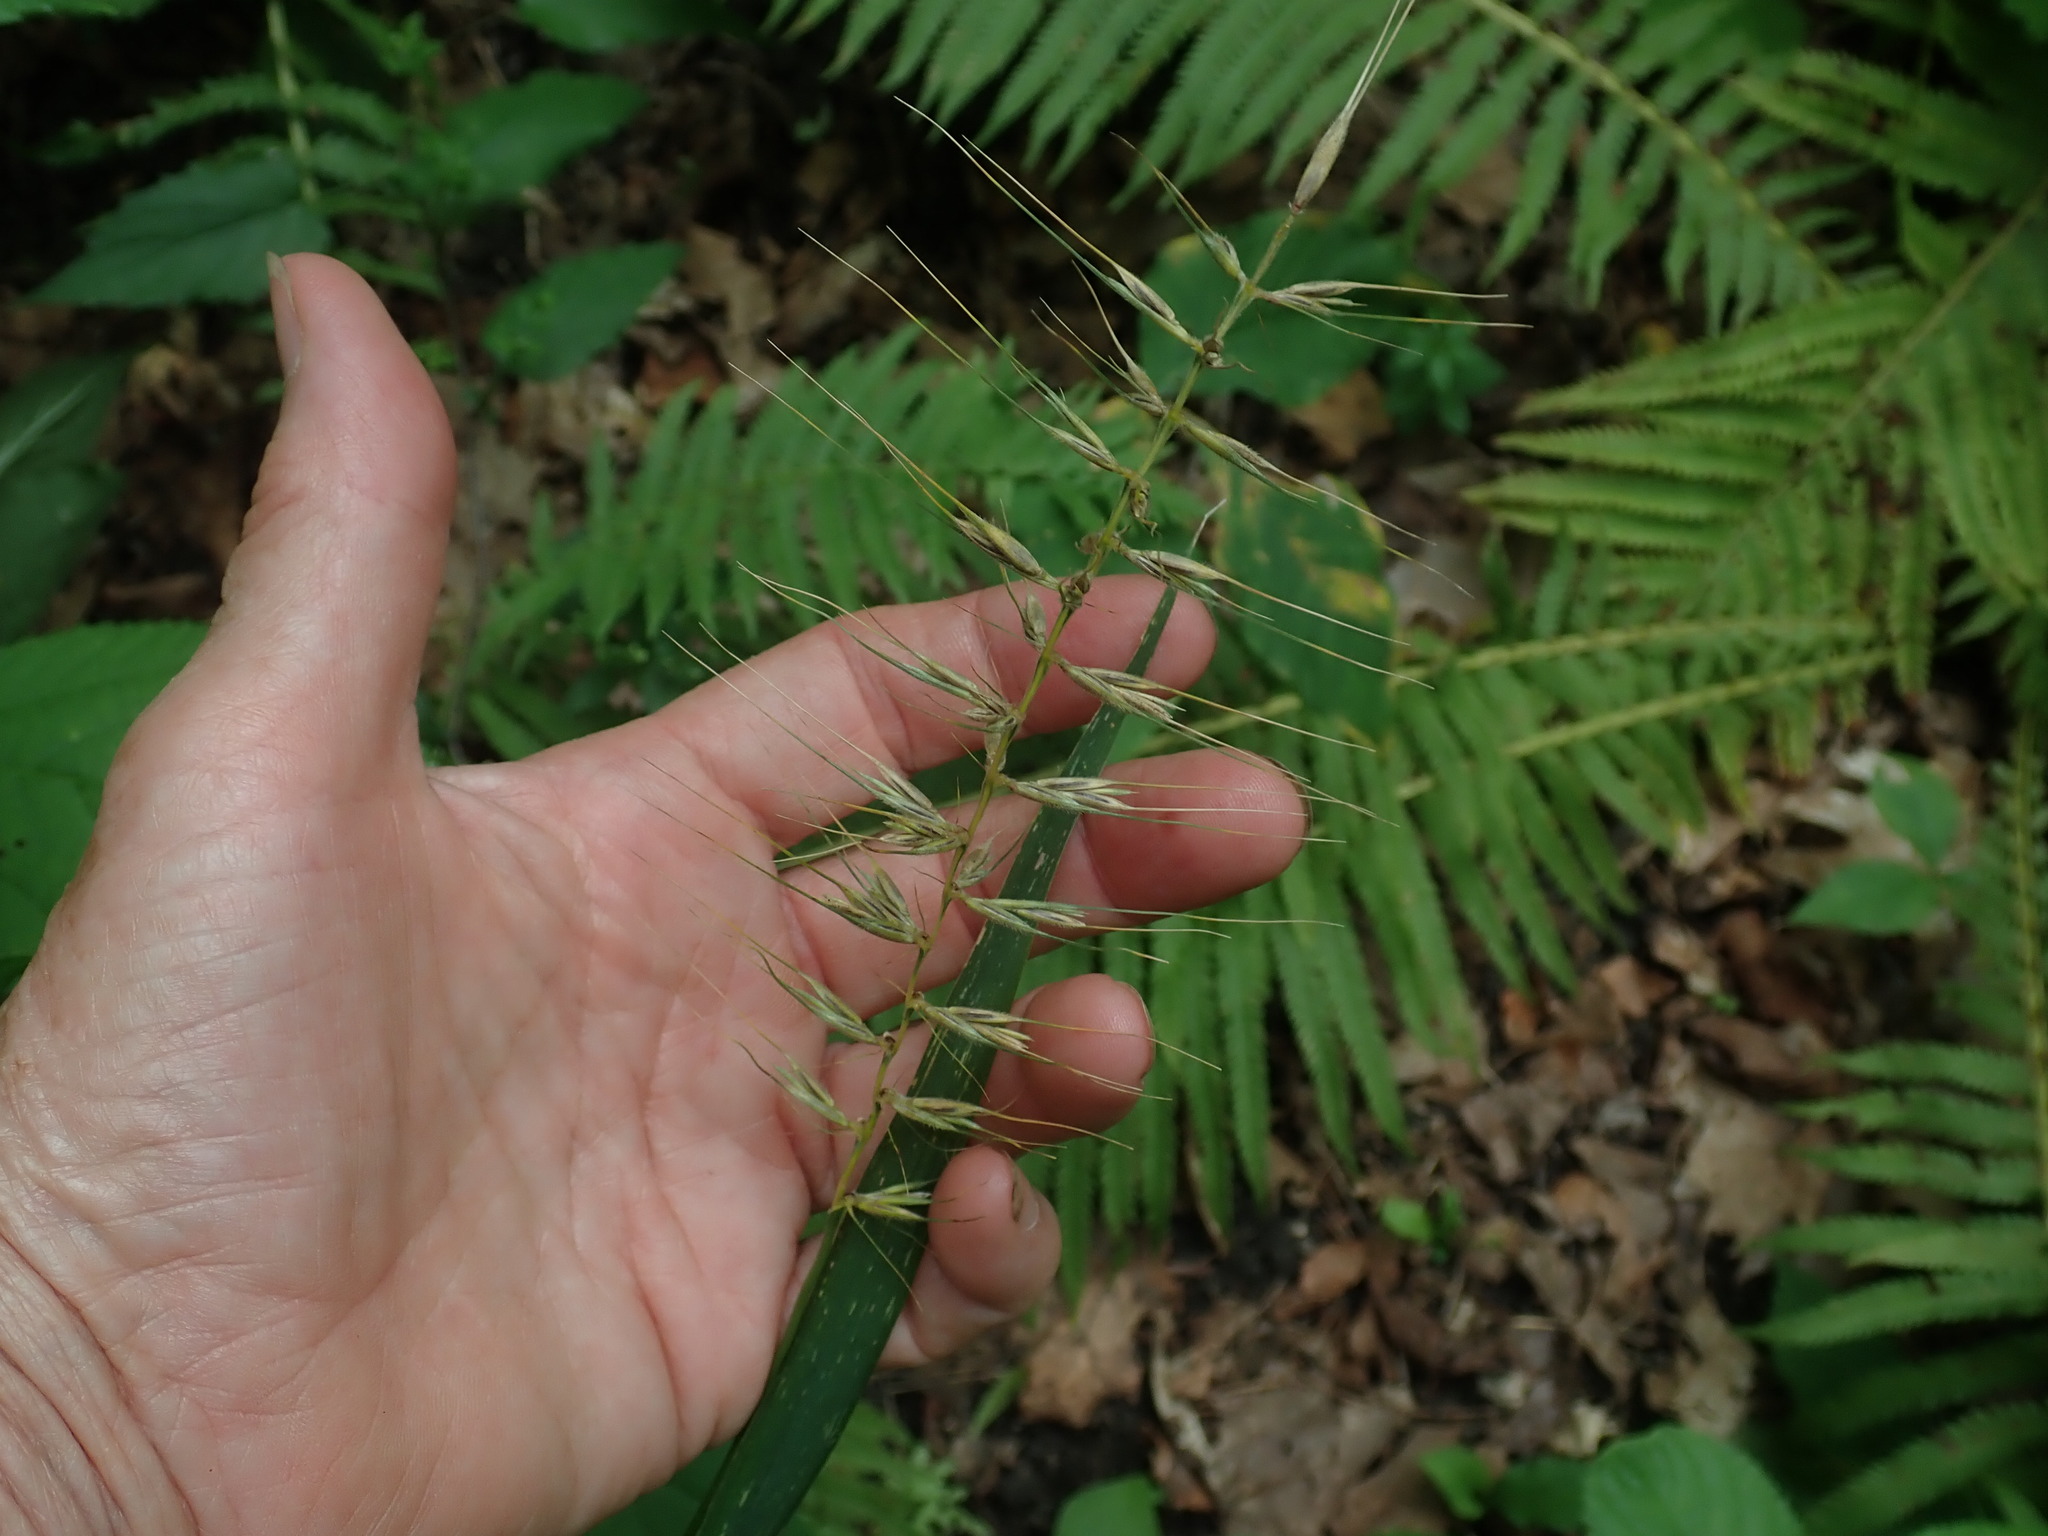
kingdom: Plantae
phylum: Tracheophyta
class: Liliopsida
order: Poales
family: Poaceae
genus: Elymus
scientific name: Elymus hystrix
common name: Bottlebrush grass
